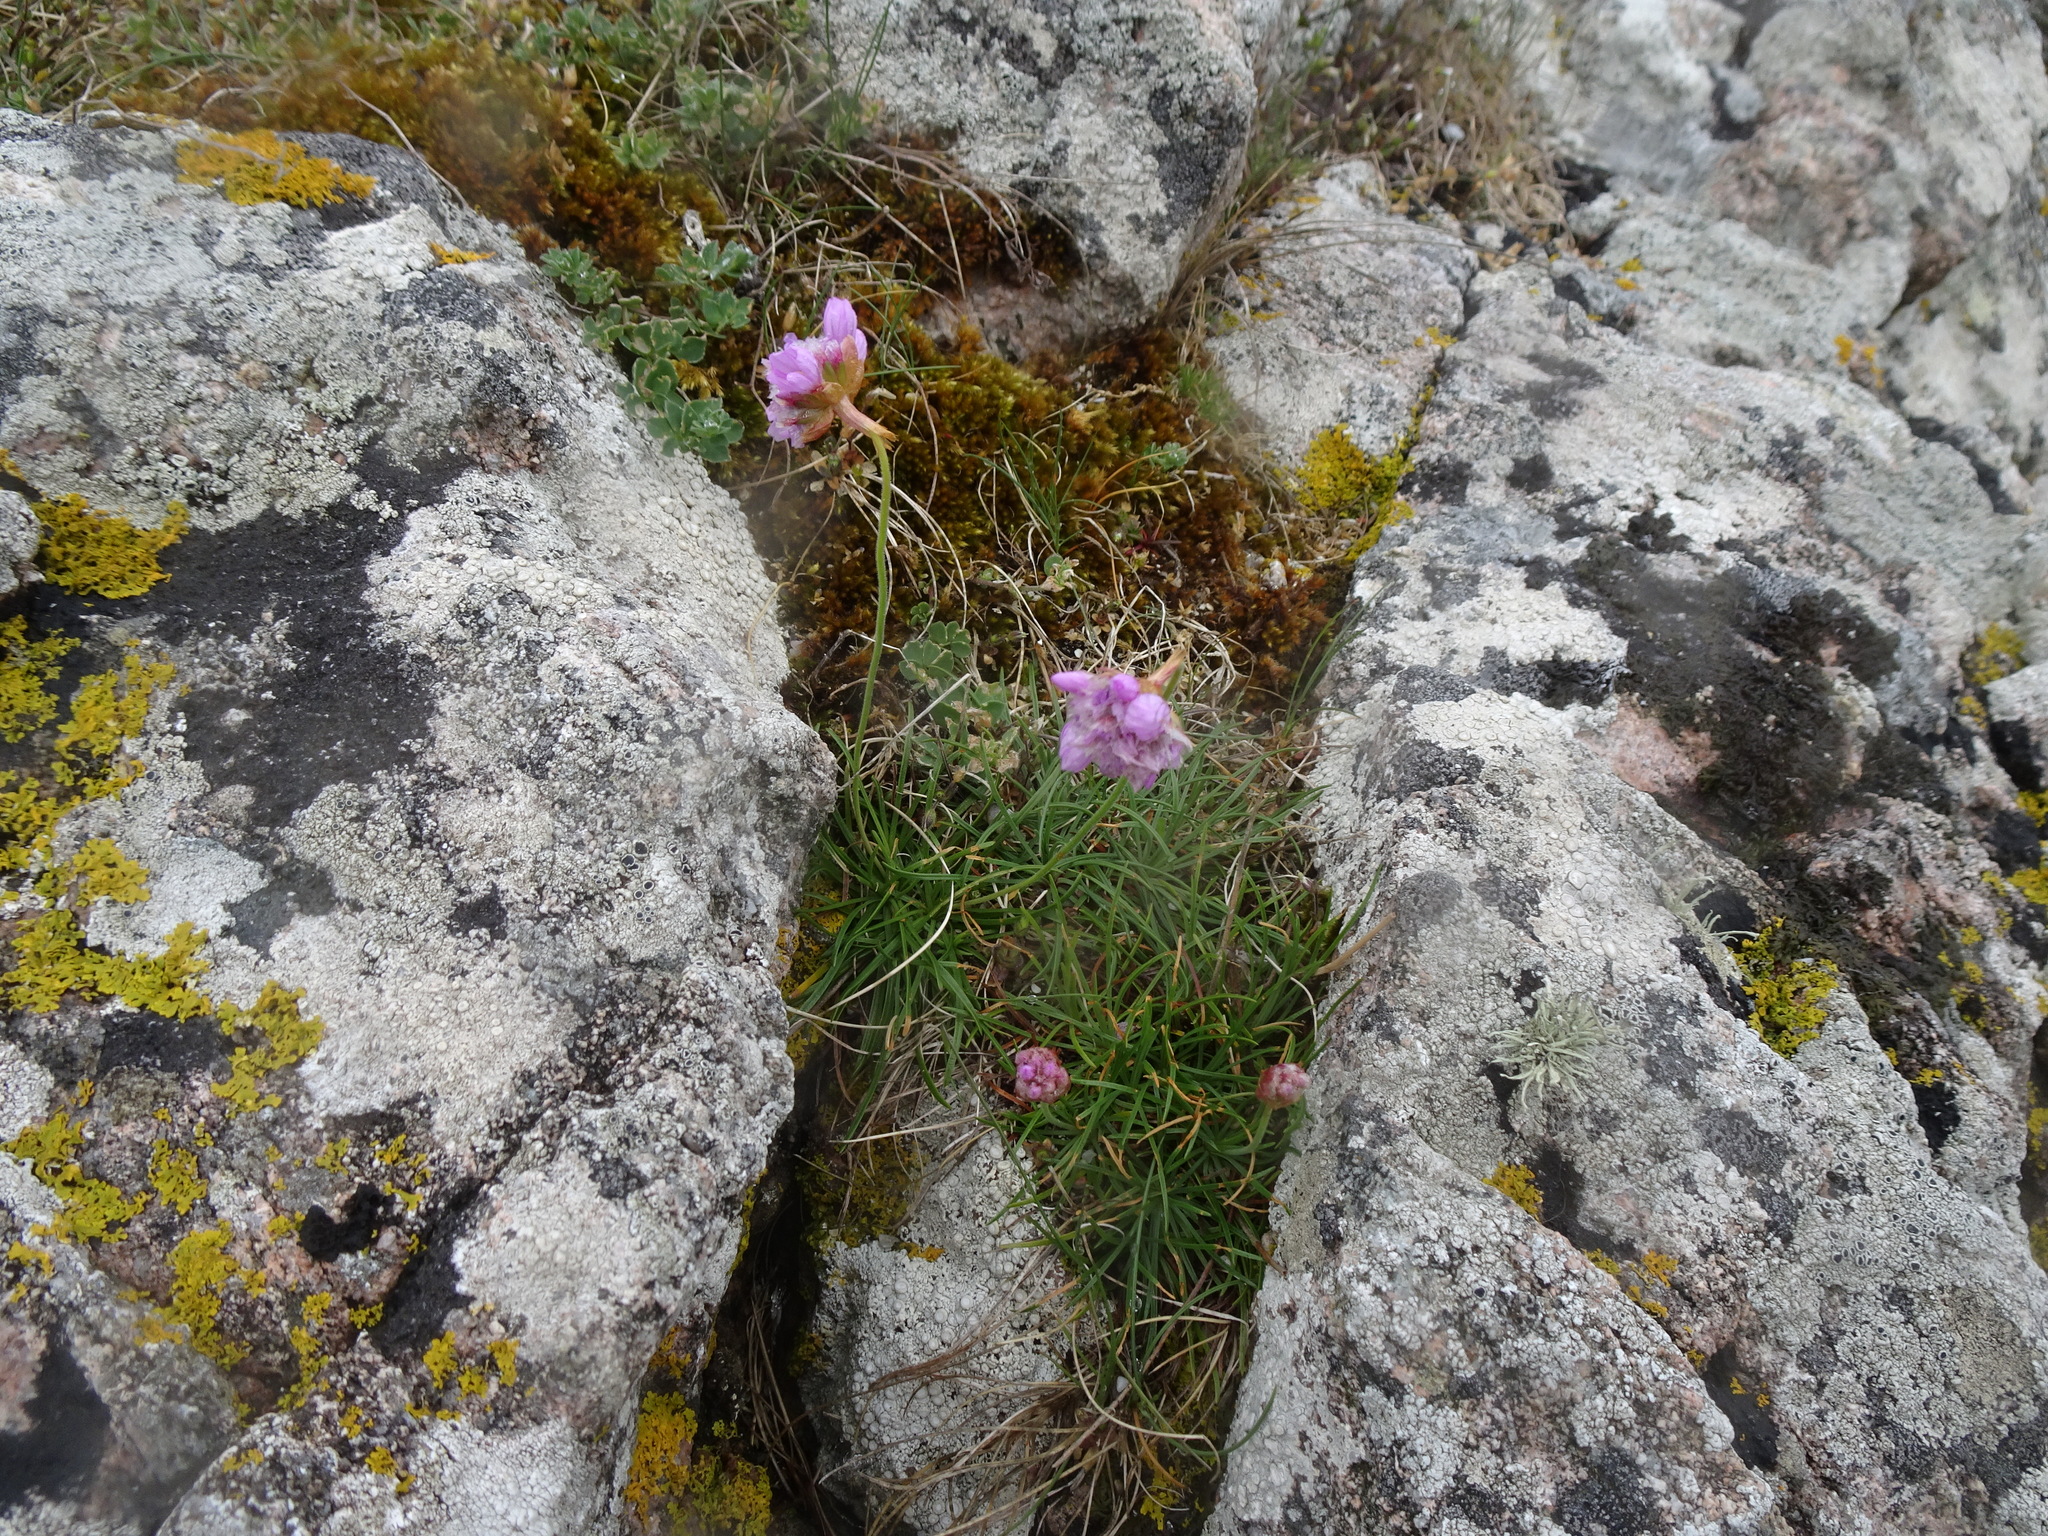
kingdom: Plantae
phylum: Tracheophyta
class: Magnoliopsida
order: Caryophyllales
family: Plumbaginaceae
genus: Armeria
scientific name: Armeria maritima
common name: Thrift
